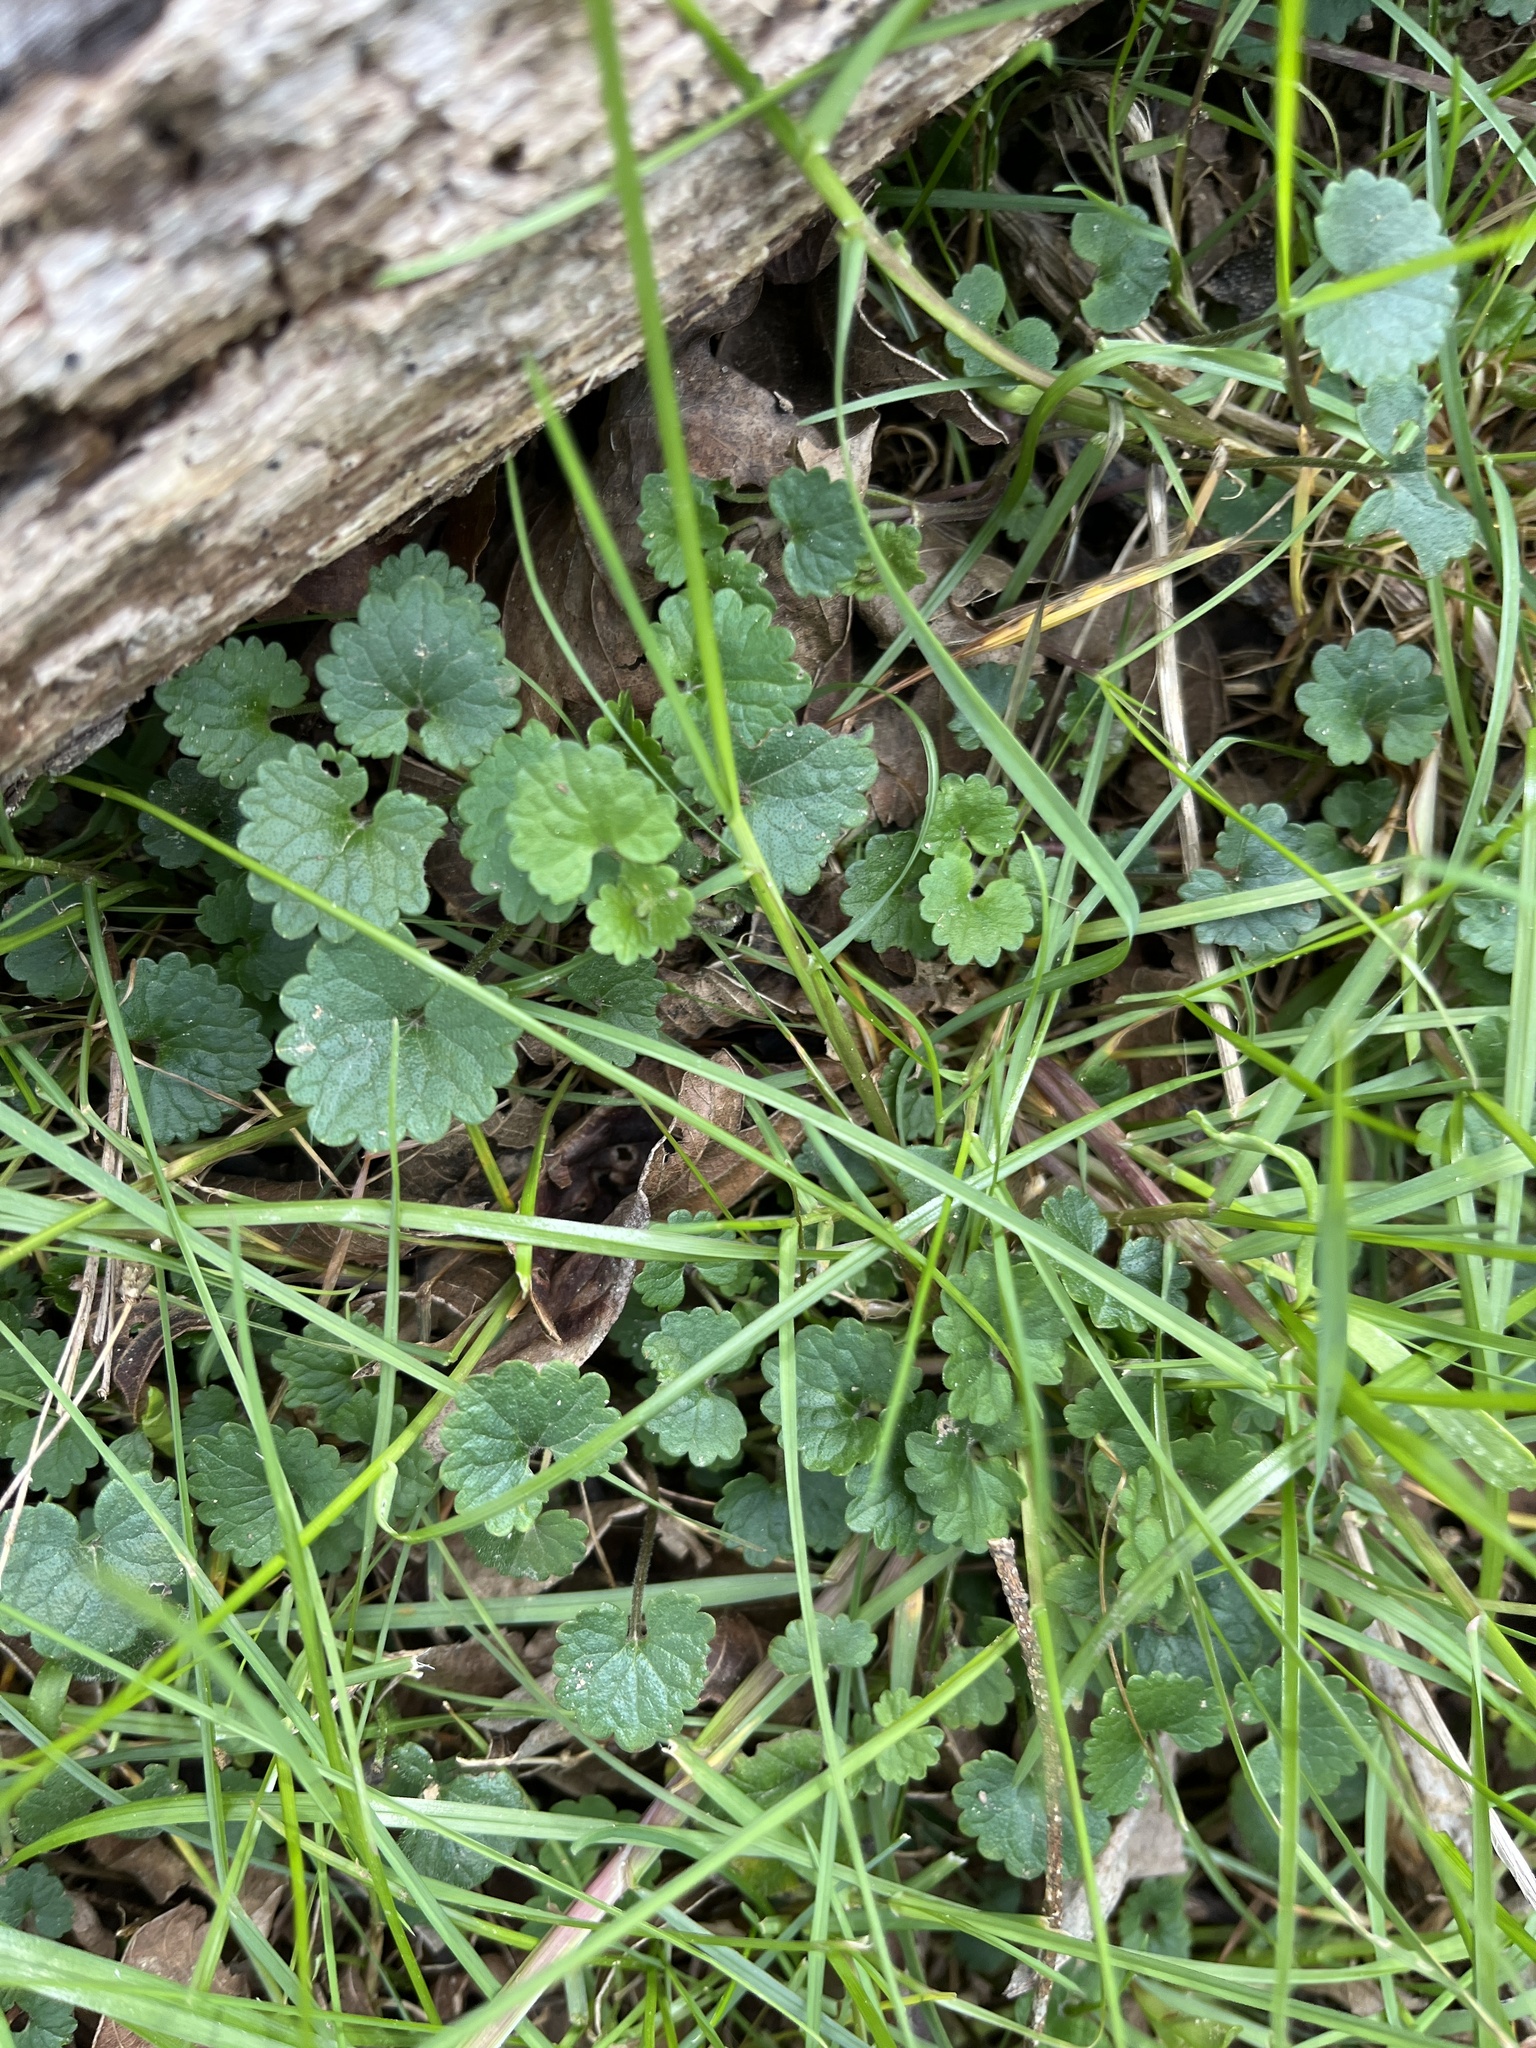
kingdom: Plantae
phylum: Tracheophyta
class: Magnoliopsida
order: Lamiales
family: Lamiaceae
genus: Glechoma
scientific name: Glechoma hederacea
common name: Ground ivy
